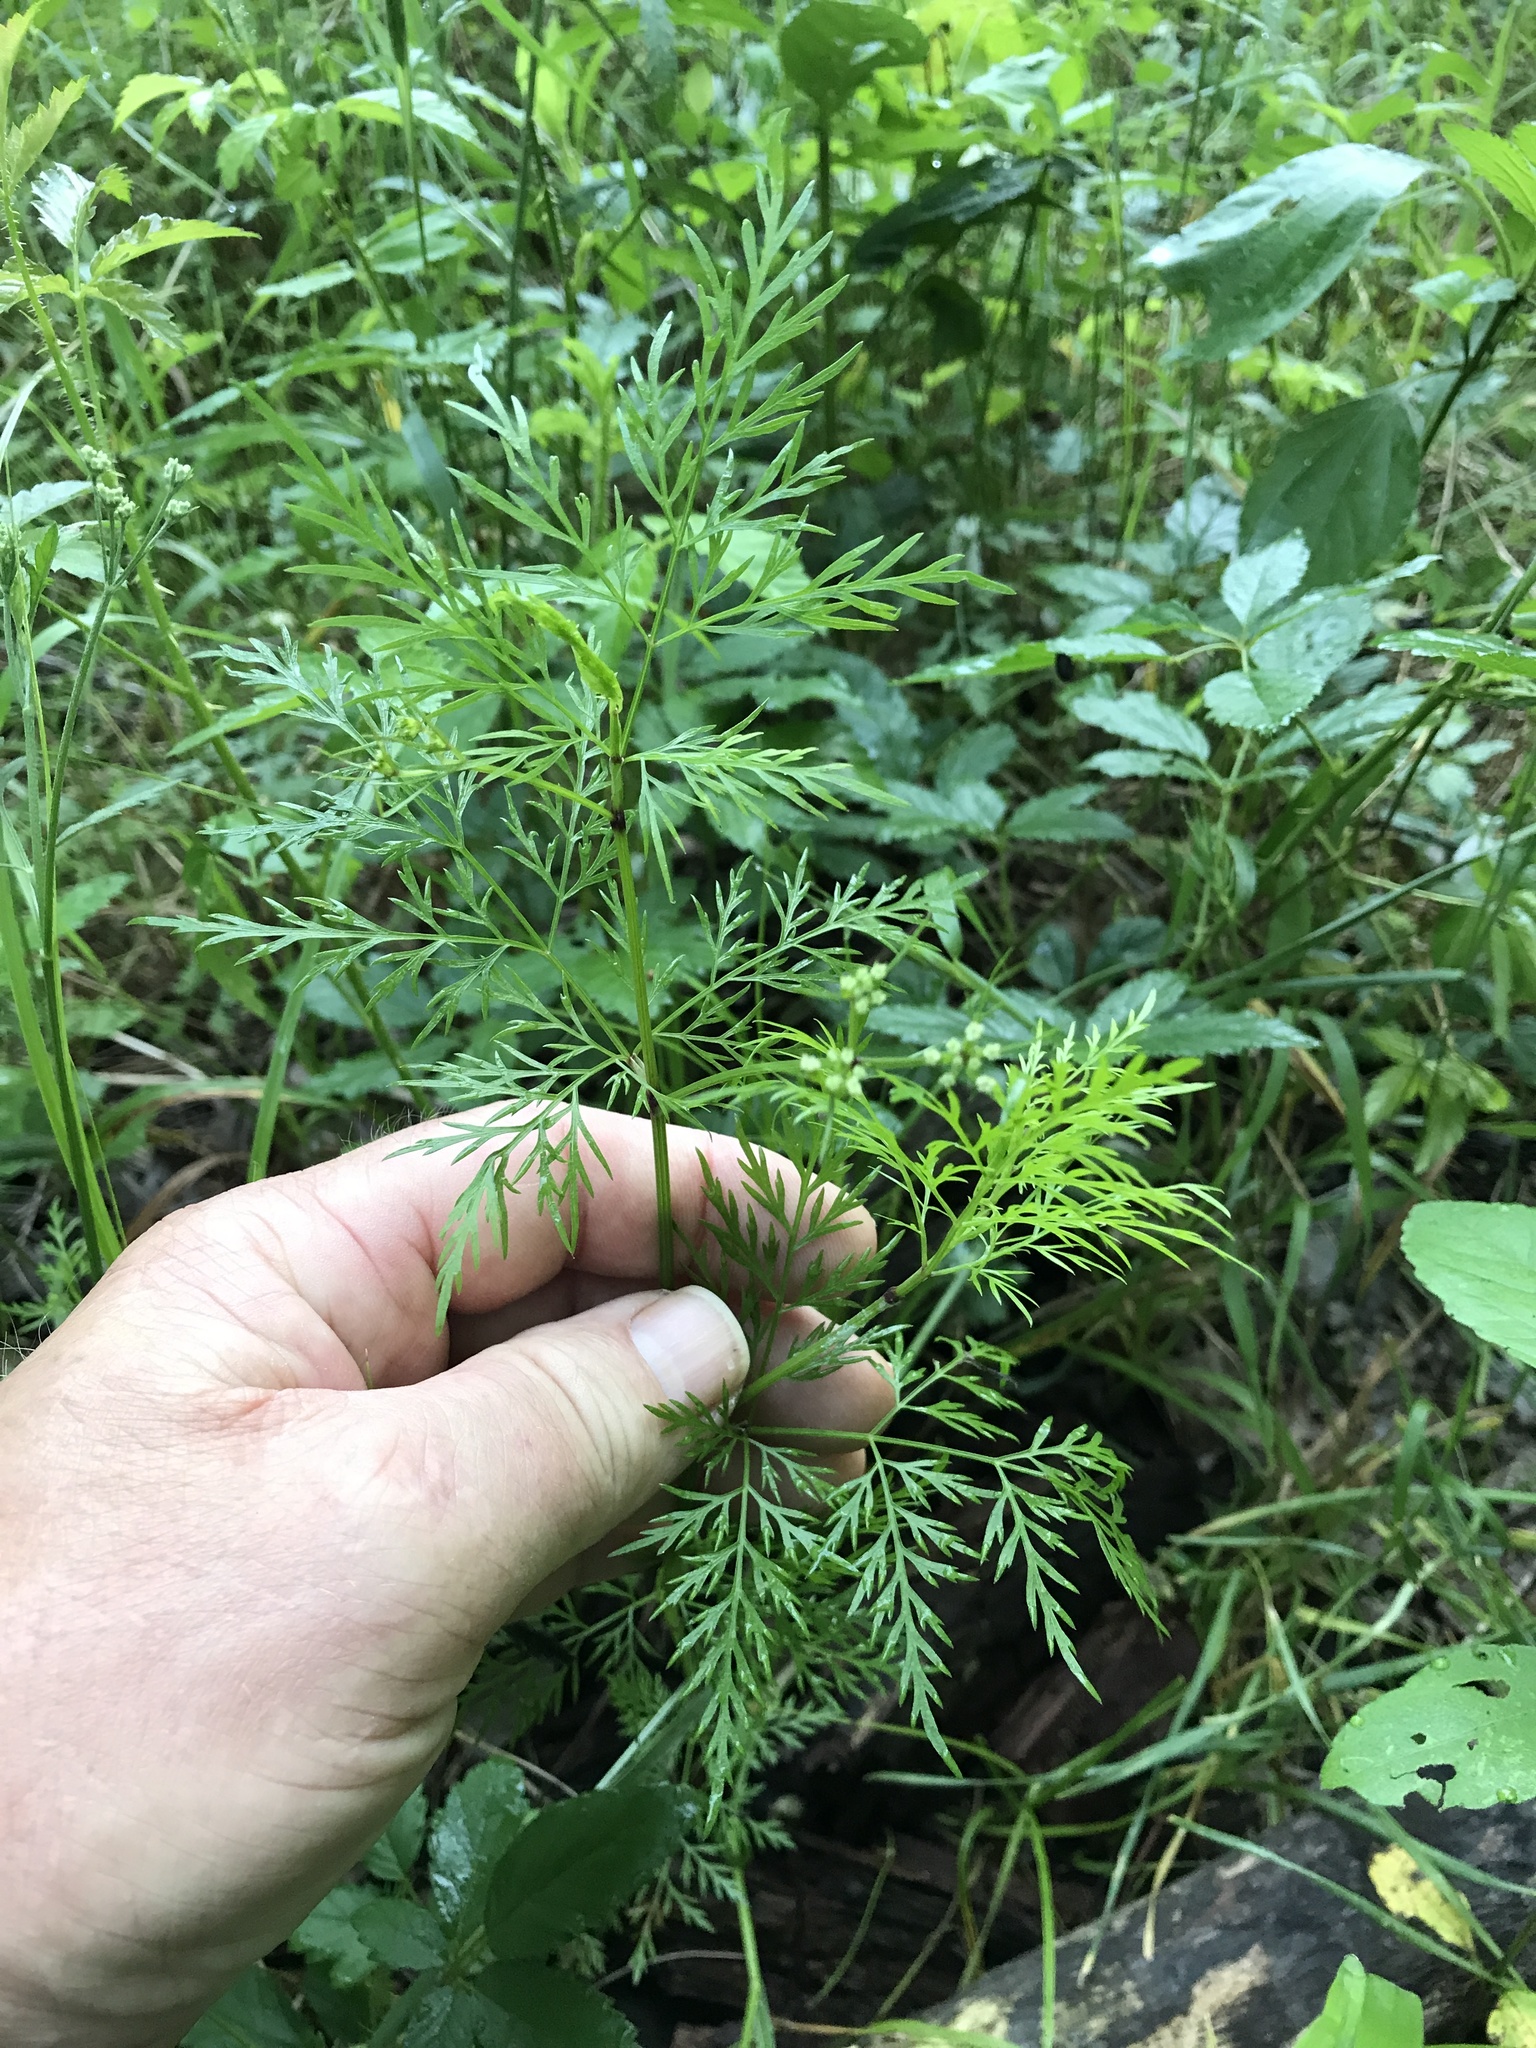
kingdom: Plantae
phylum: Tracheophyta
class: Magnoliopsida
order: Apiales
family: Apiaceae
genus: Trepocarpus
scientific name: Trepocarpus aethusae
